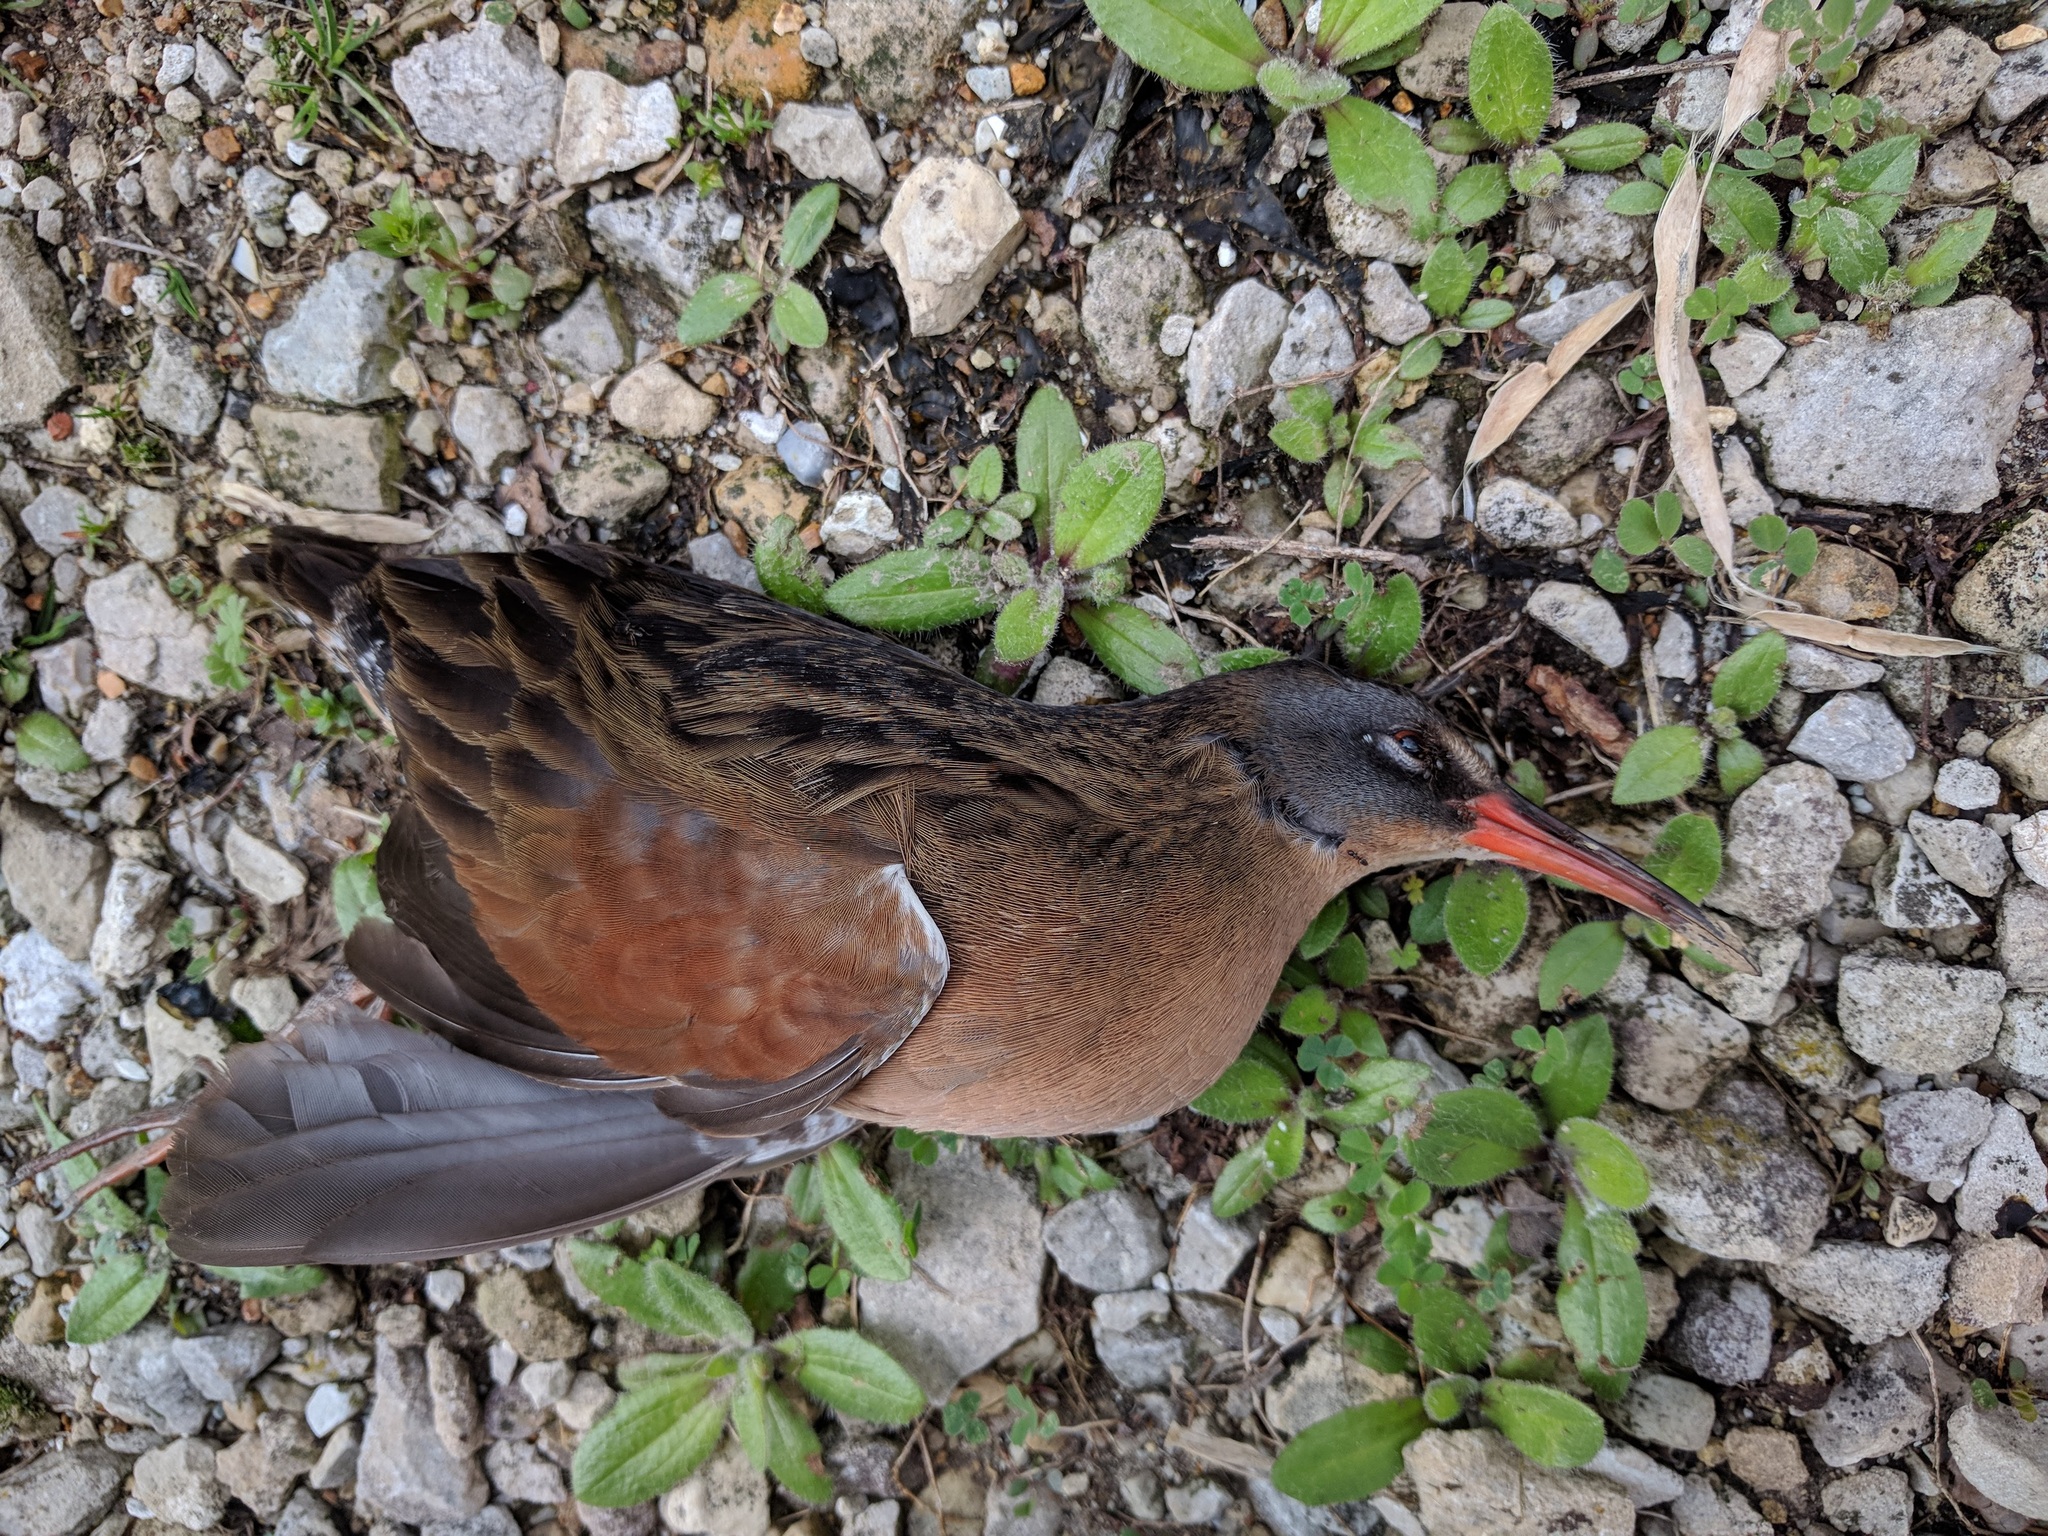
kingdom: Animalia
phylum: Chordata
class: Aves
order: Gruiformes
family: Rallidae
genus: Rallus
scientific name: Rallus limicola
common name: Virginia rail
